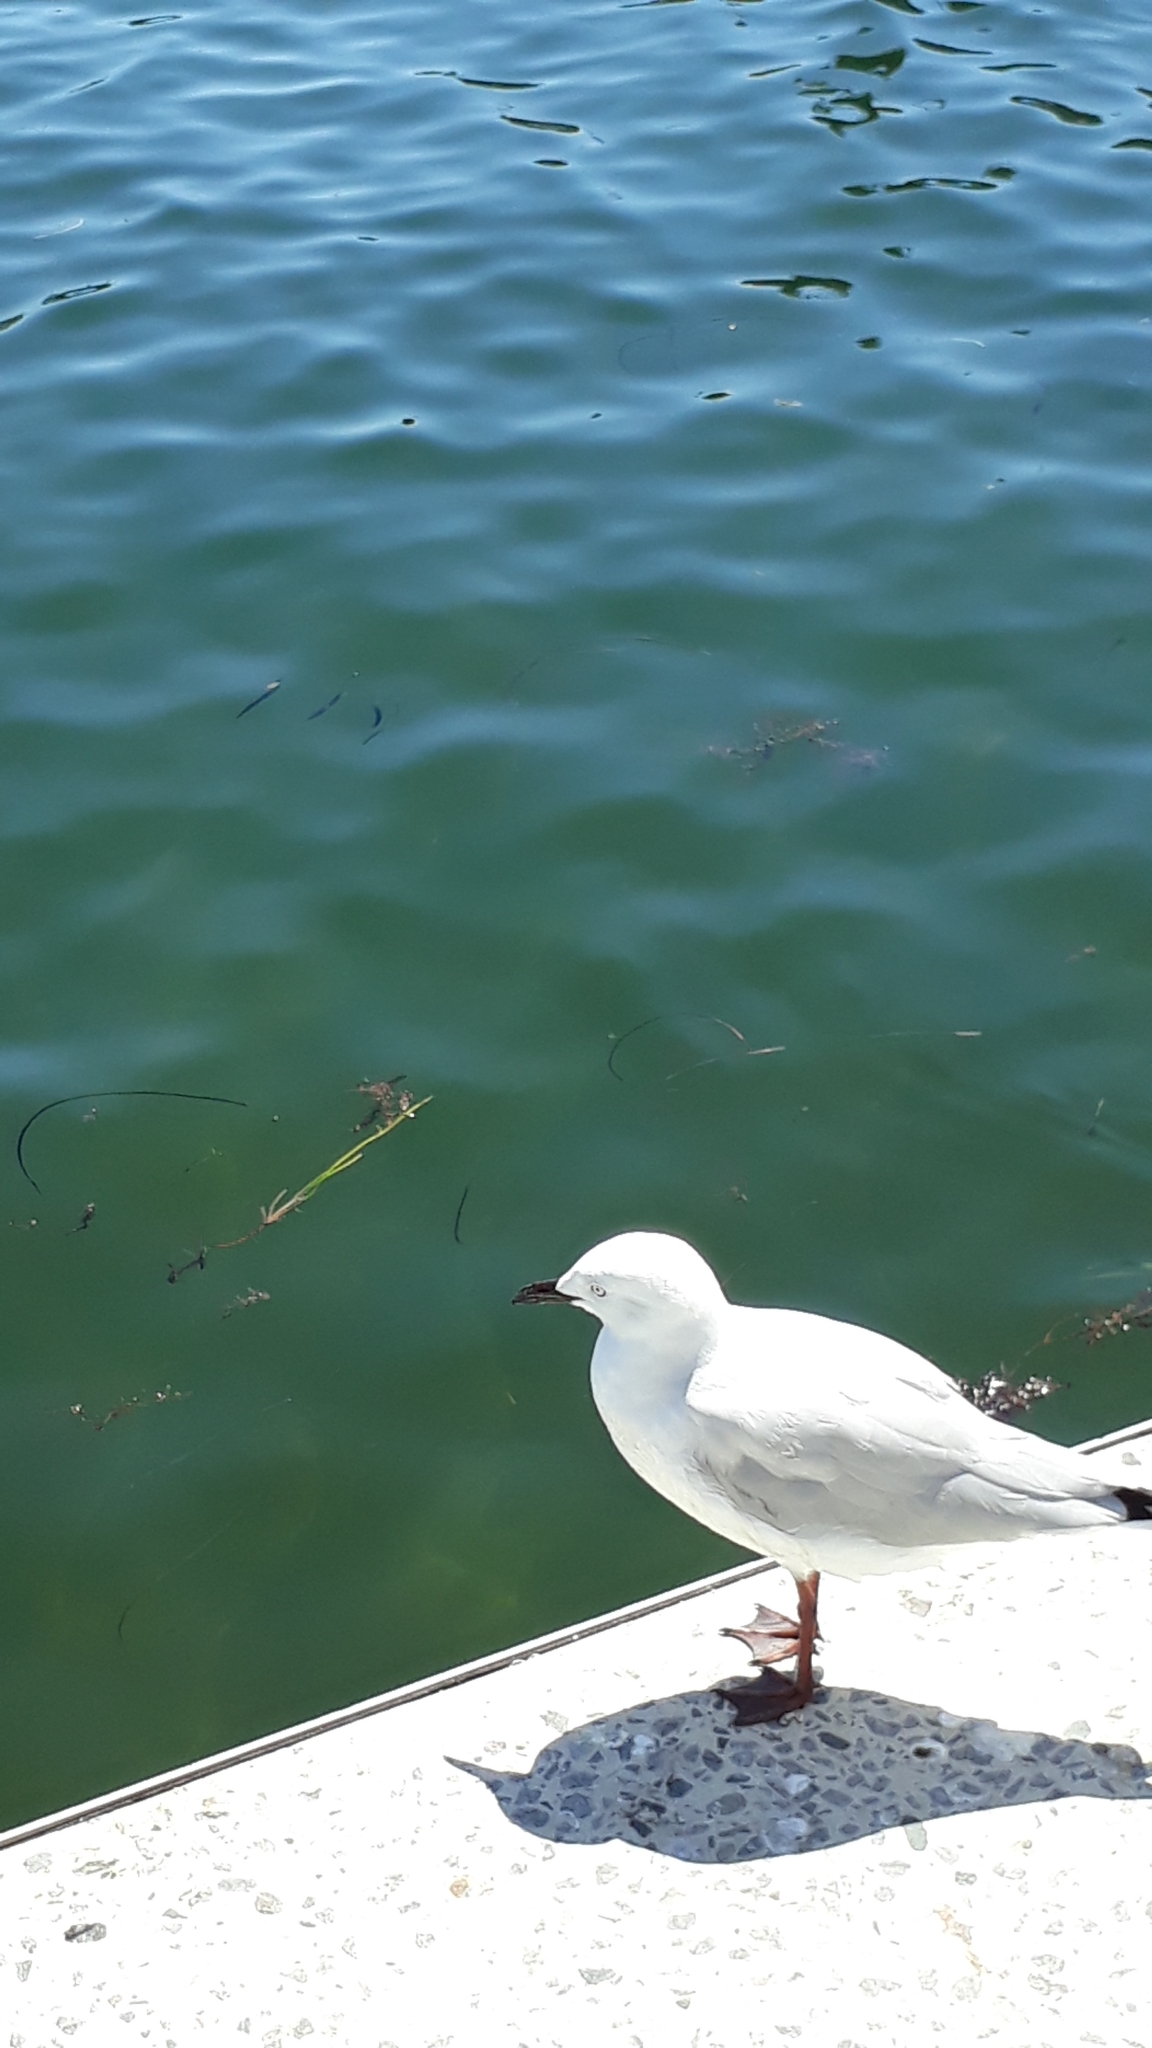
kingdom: Animalia
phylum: Chordata
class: Aves
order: Charadriiformes
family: Laridae
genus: Chroicocephalus
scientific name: Chroicocephalus novaehollandiae
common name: Silver gull
